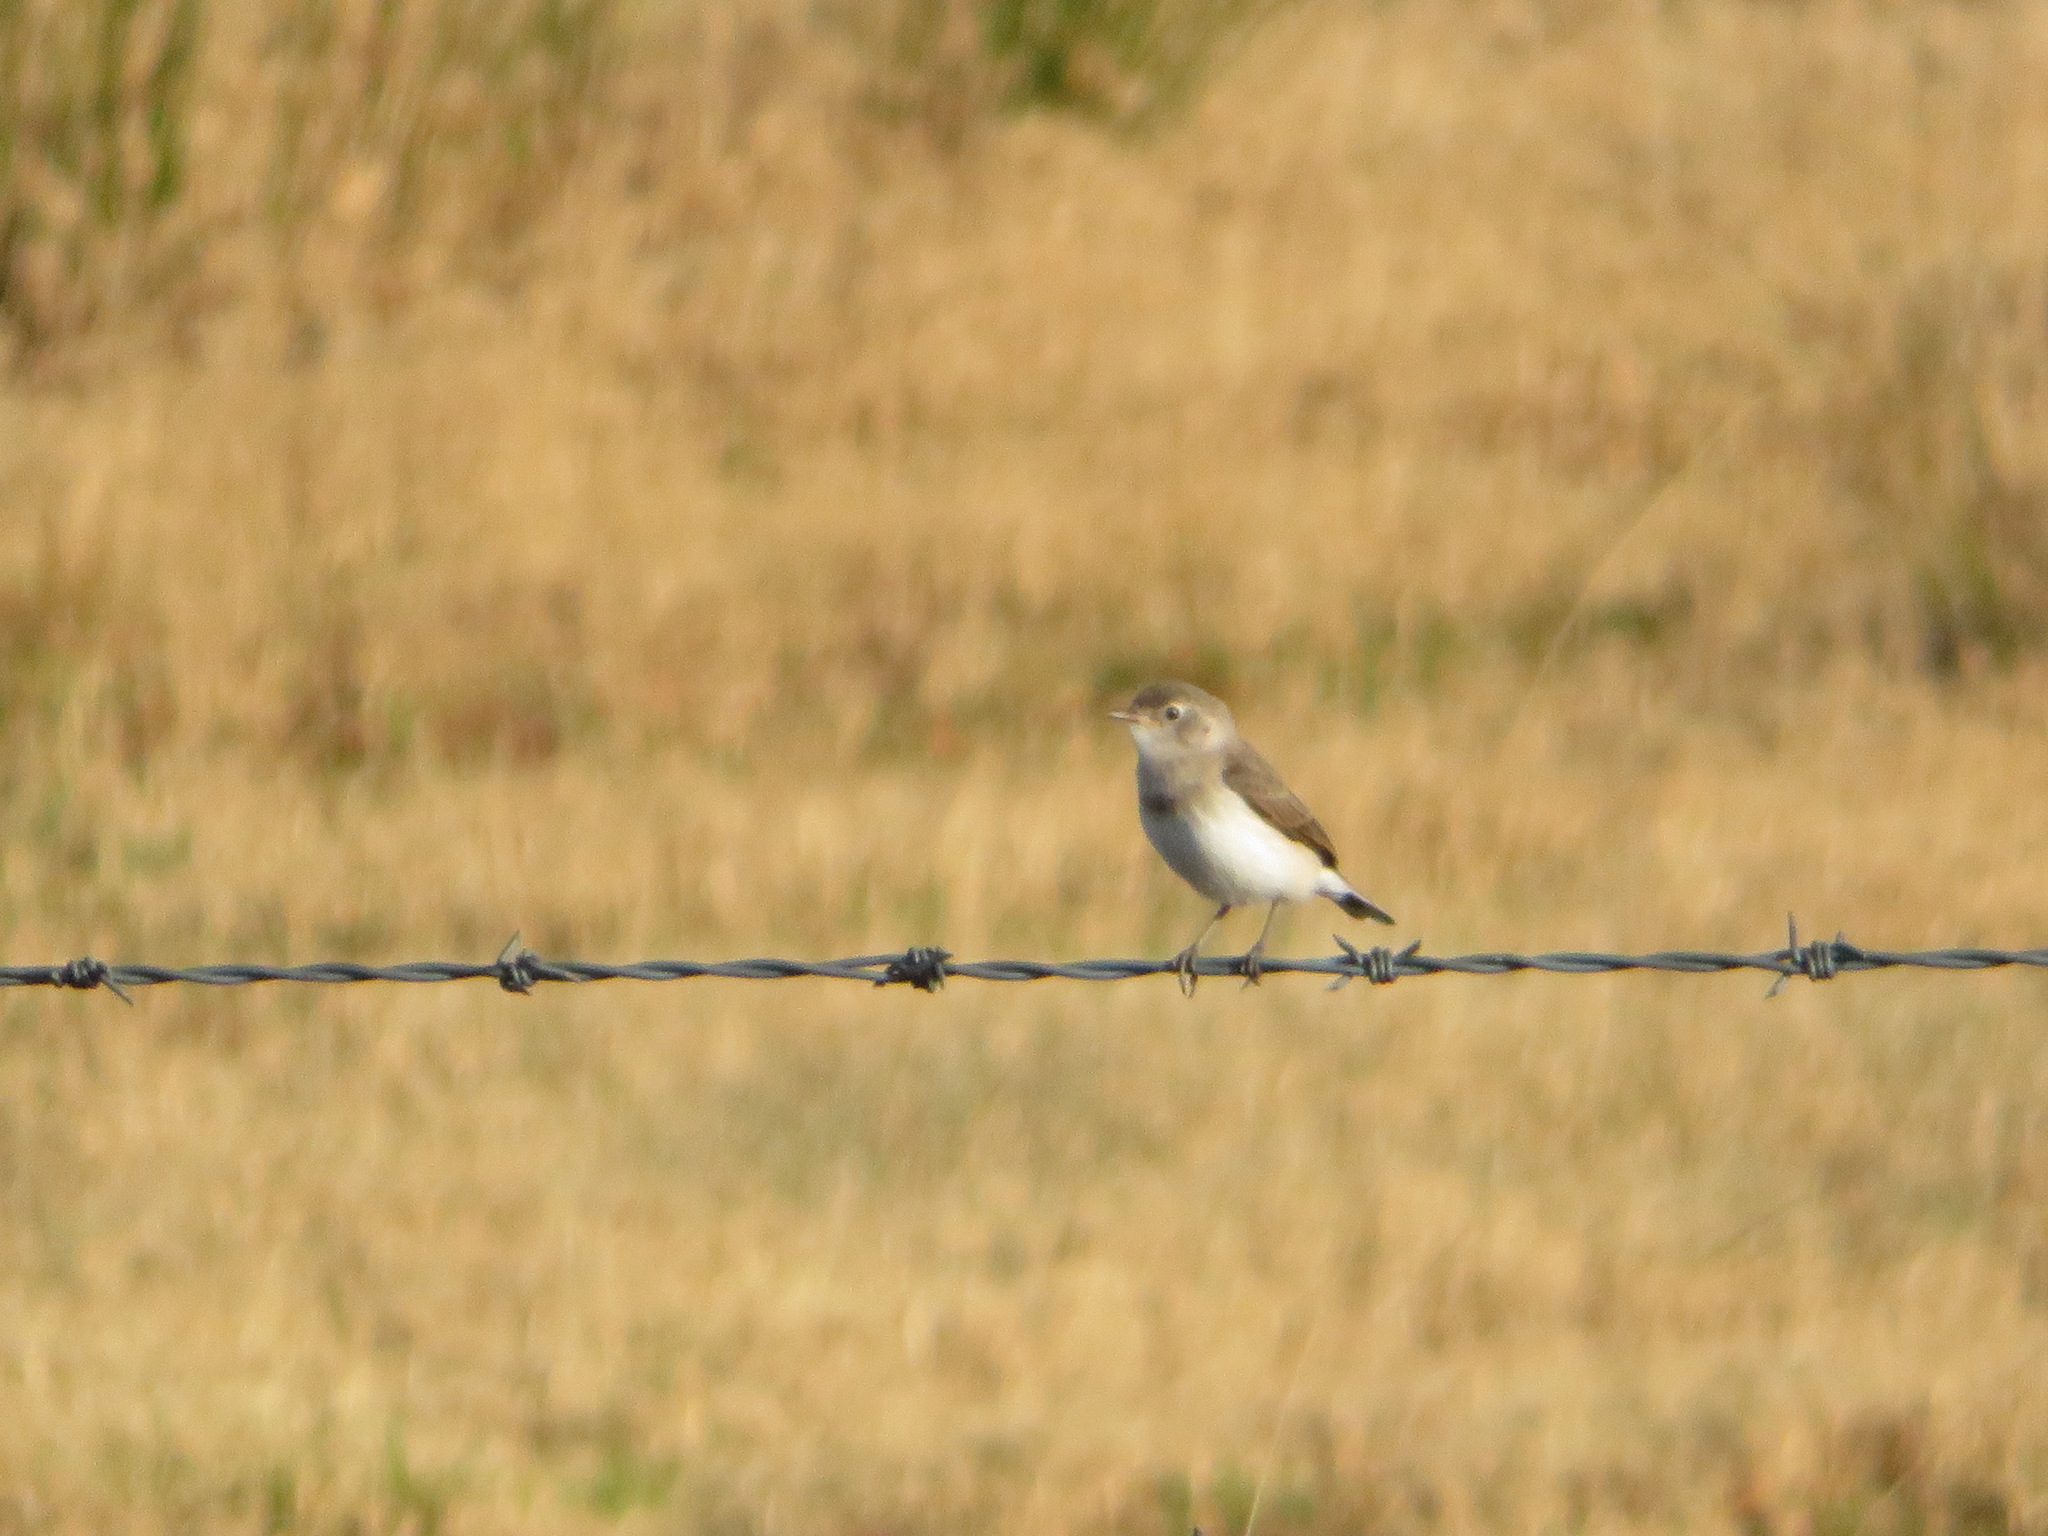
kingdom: Animalia
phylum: Chordata
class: Aves
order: Passeriformes
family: Meliphagidae
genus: Epthianura
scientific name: Epthianura albifrons
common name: White-fronted chat
